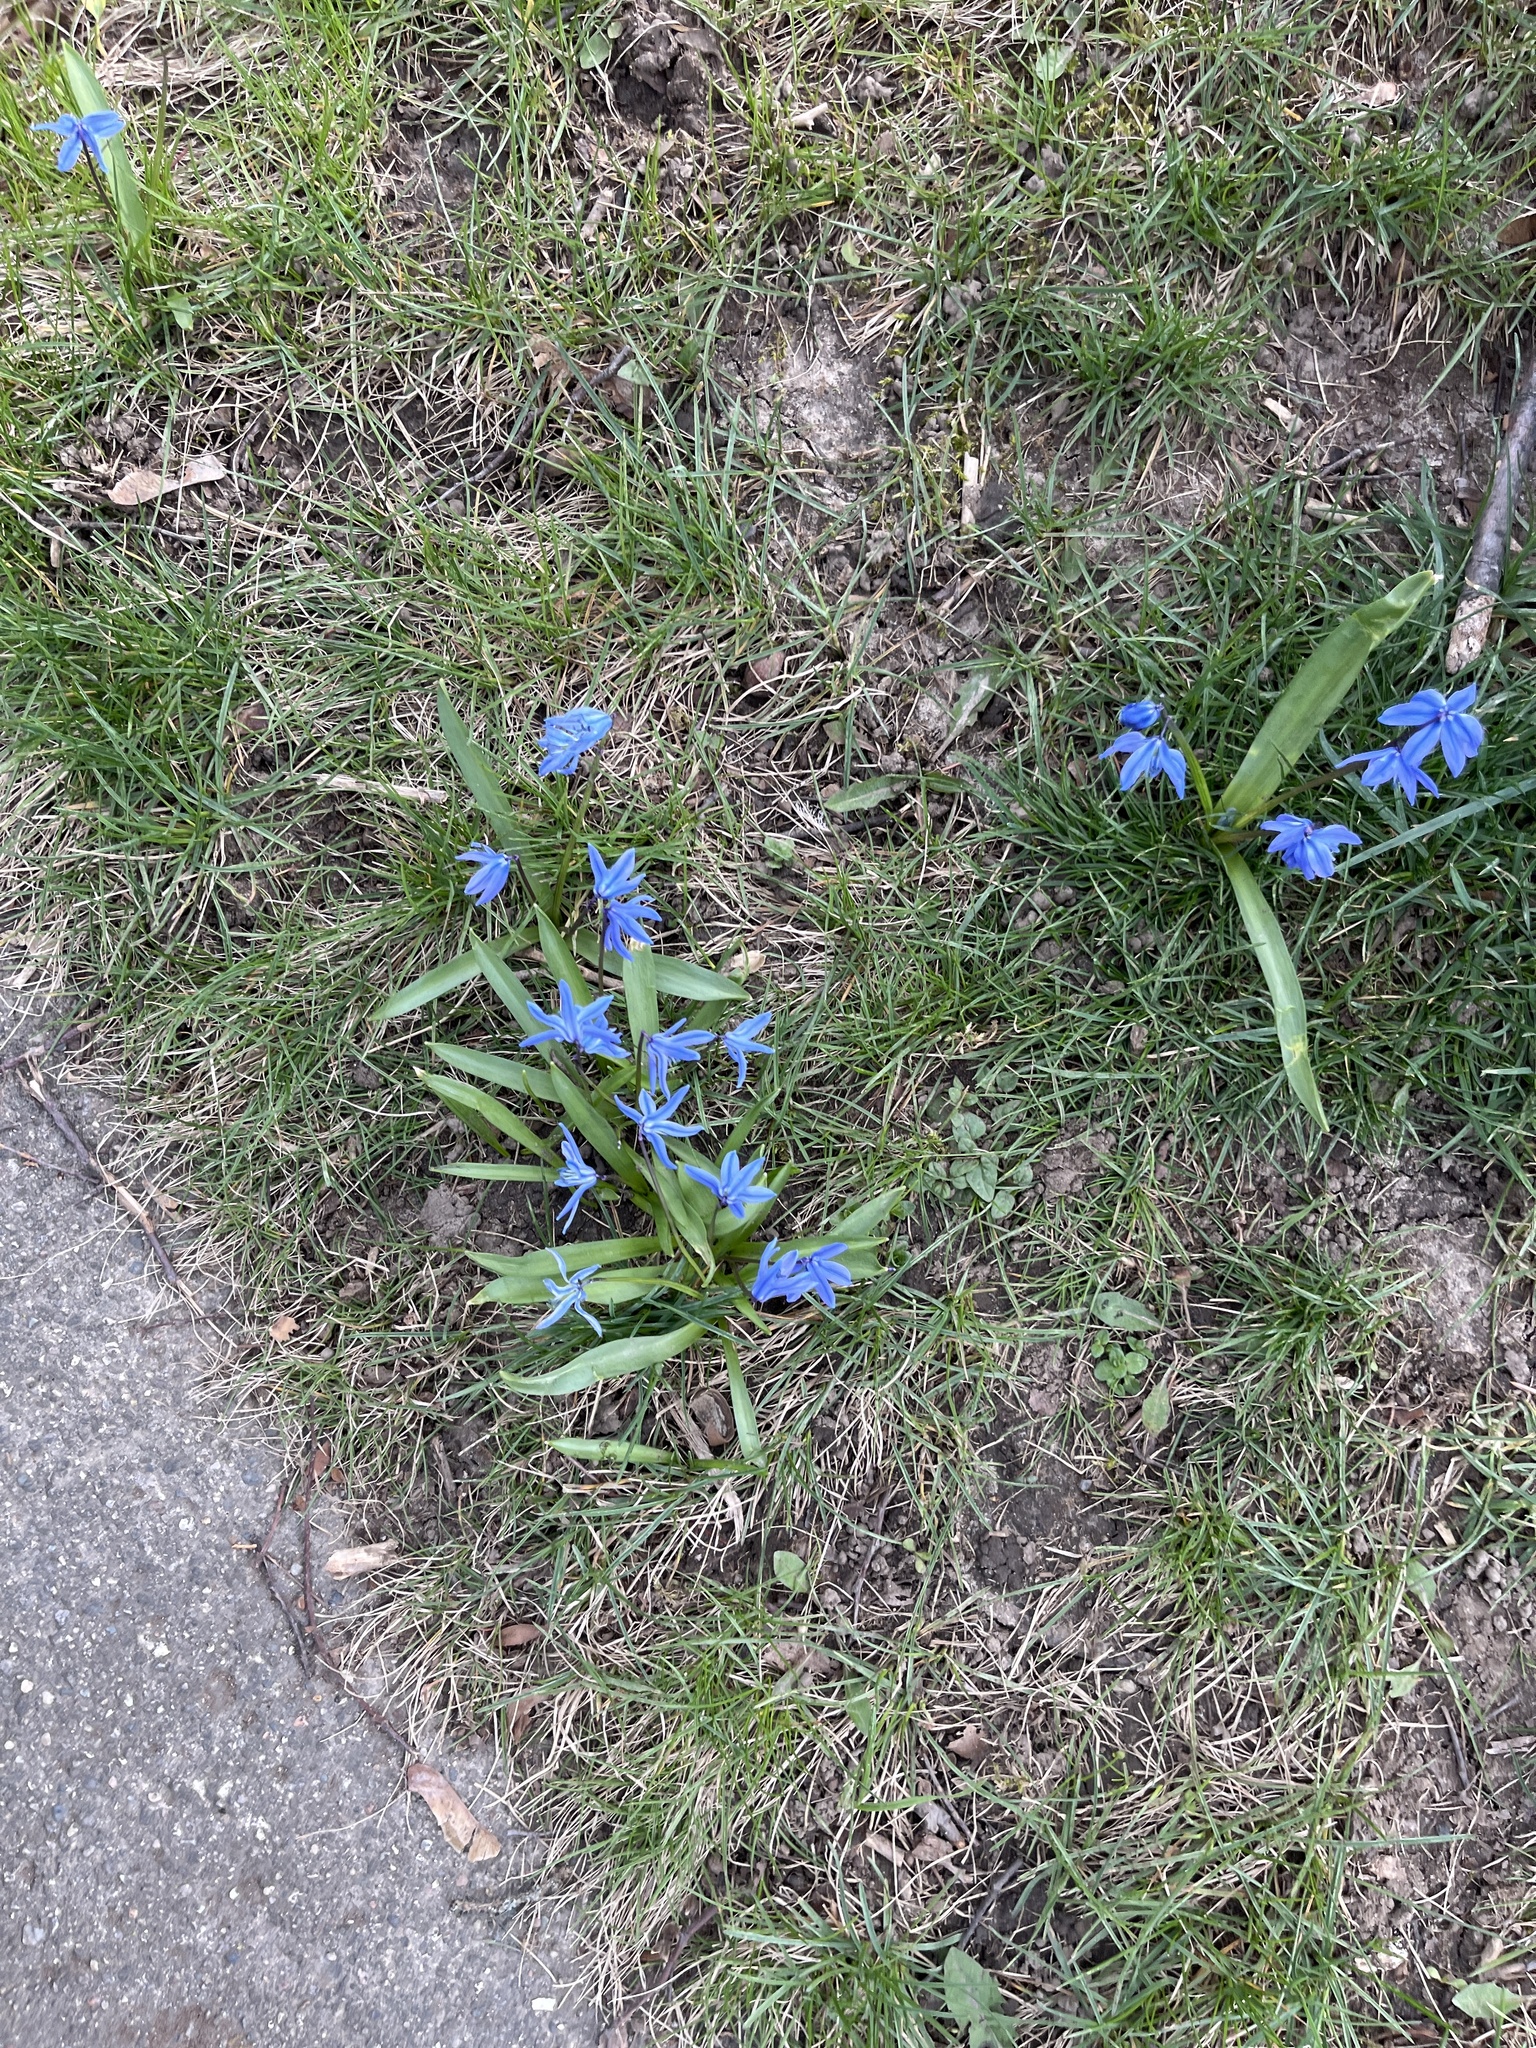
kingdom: Plantae
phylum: Tracheophyta
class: Liliopsida
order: Asparagales
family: Asparagaceae
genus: Scilla
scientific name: Scilla siberica
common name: Siberian squill
